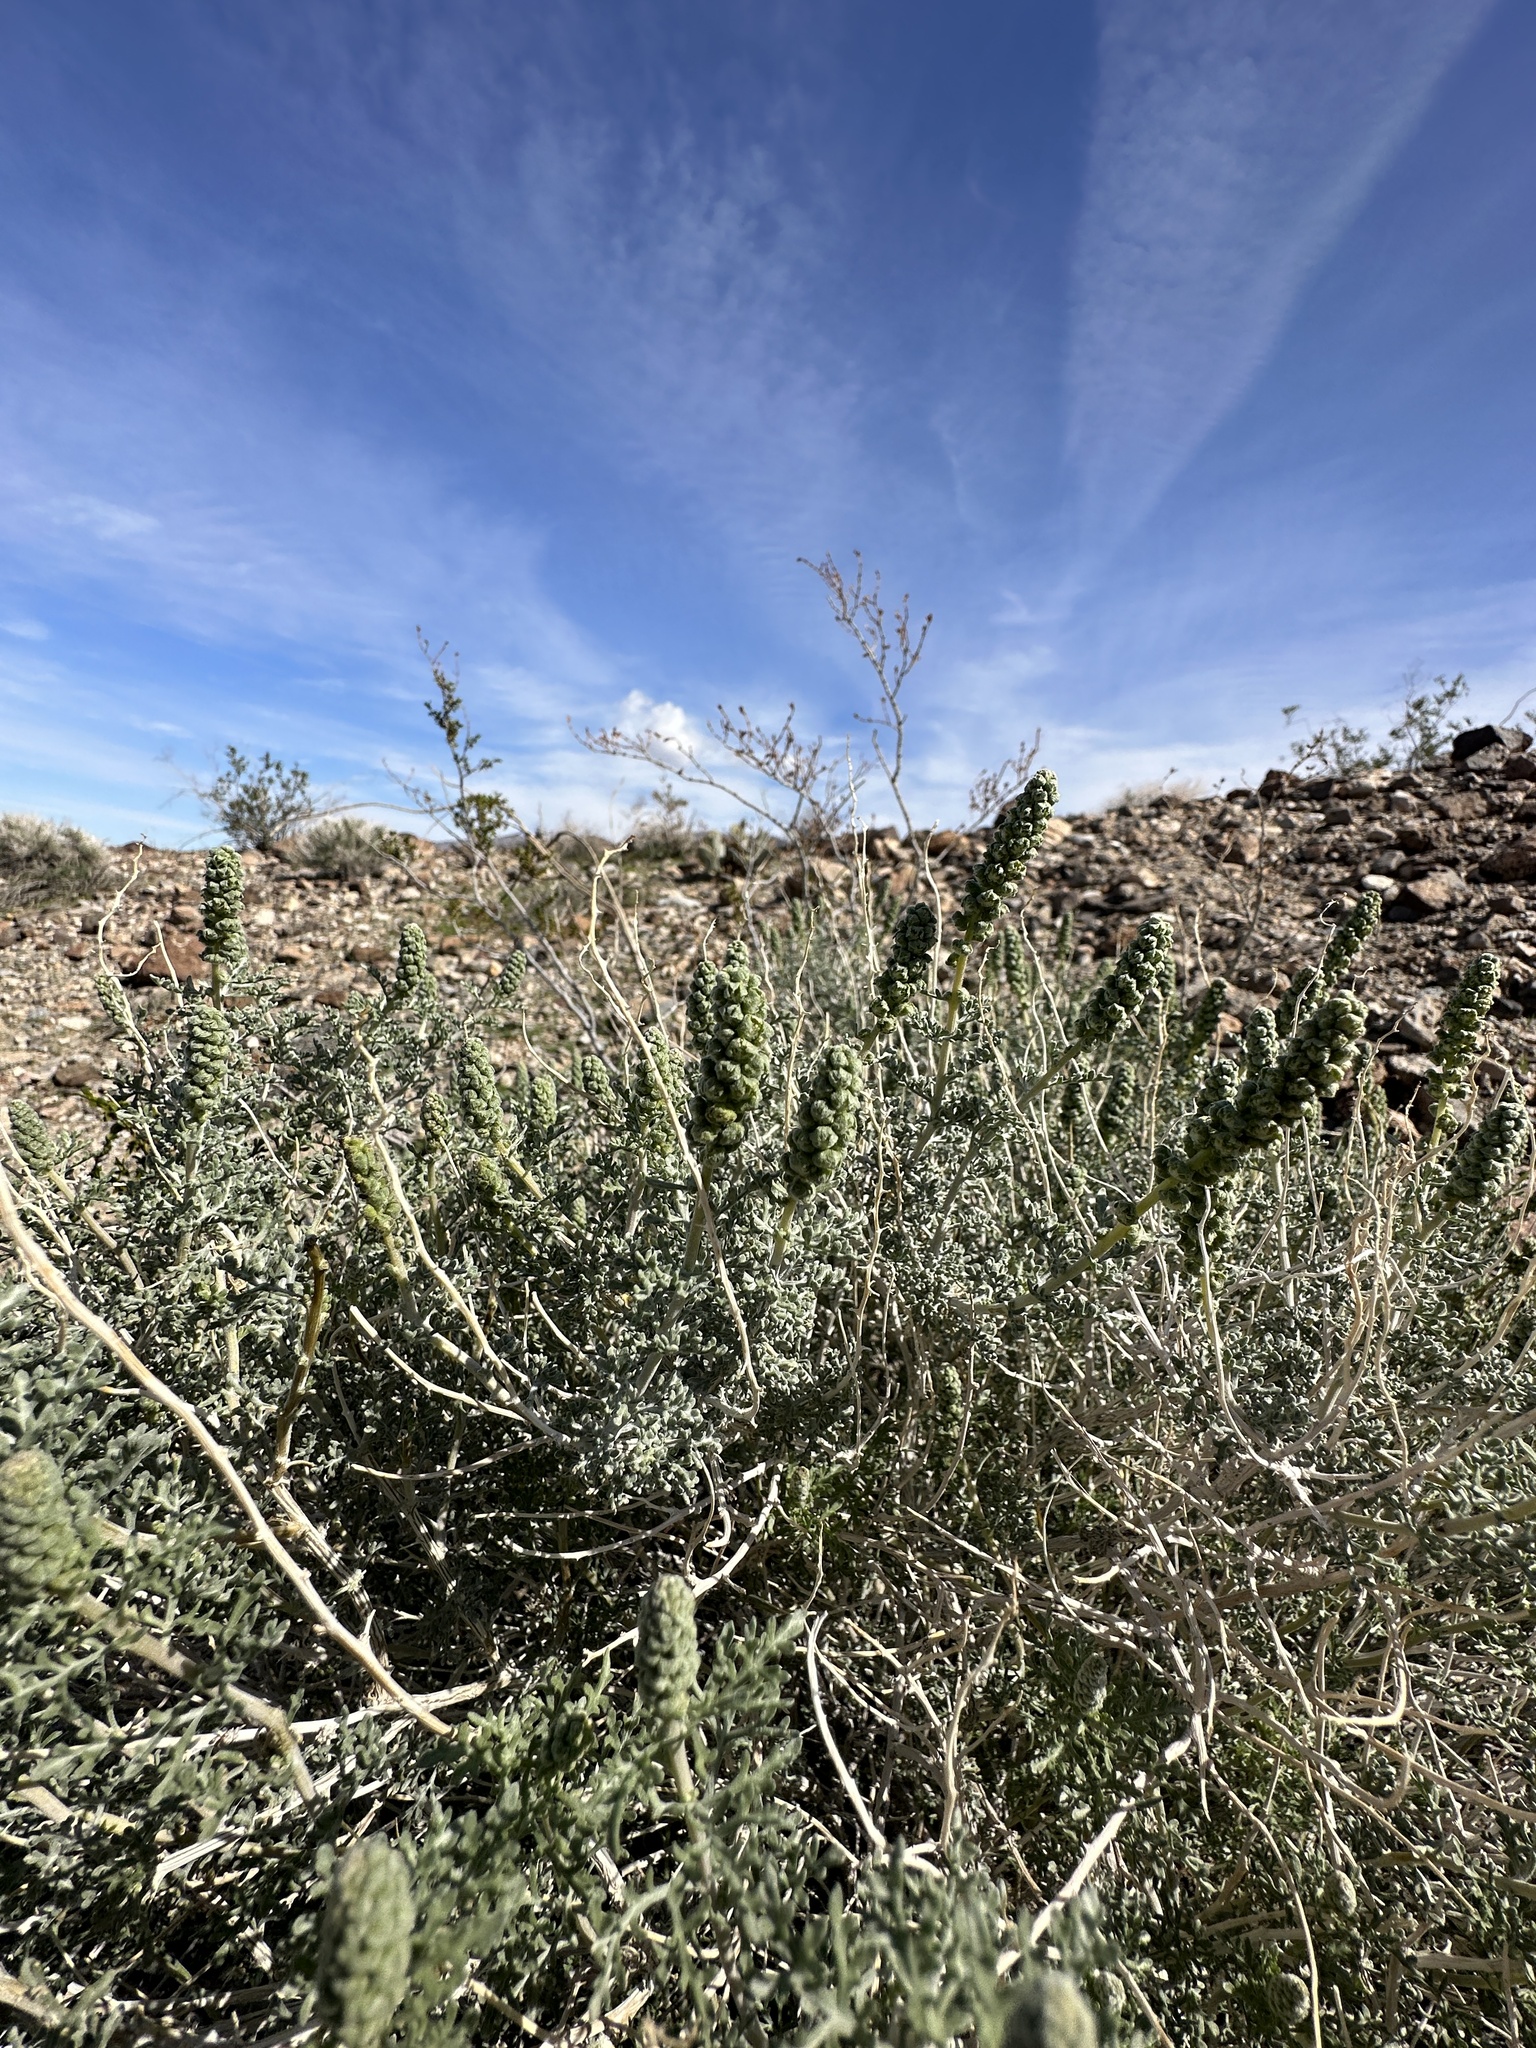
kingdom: Plantae
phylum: Tracheophyta
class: Magnoliopsida
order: Asterales
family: Asteraceae
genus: Ambrosia
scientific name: Ambrosia dumosa
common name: Bur-sage
